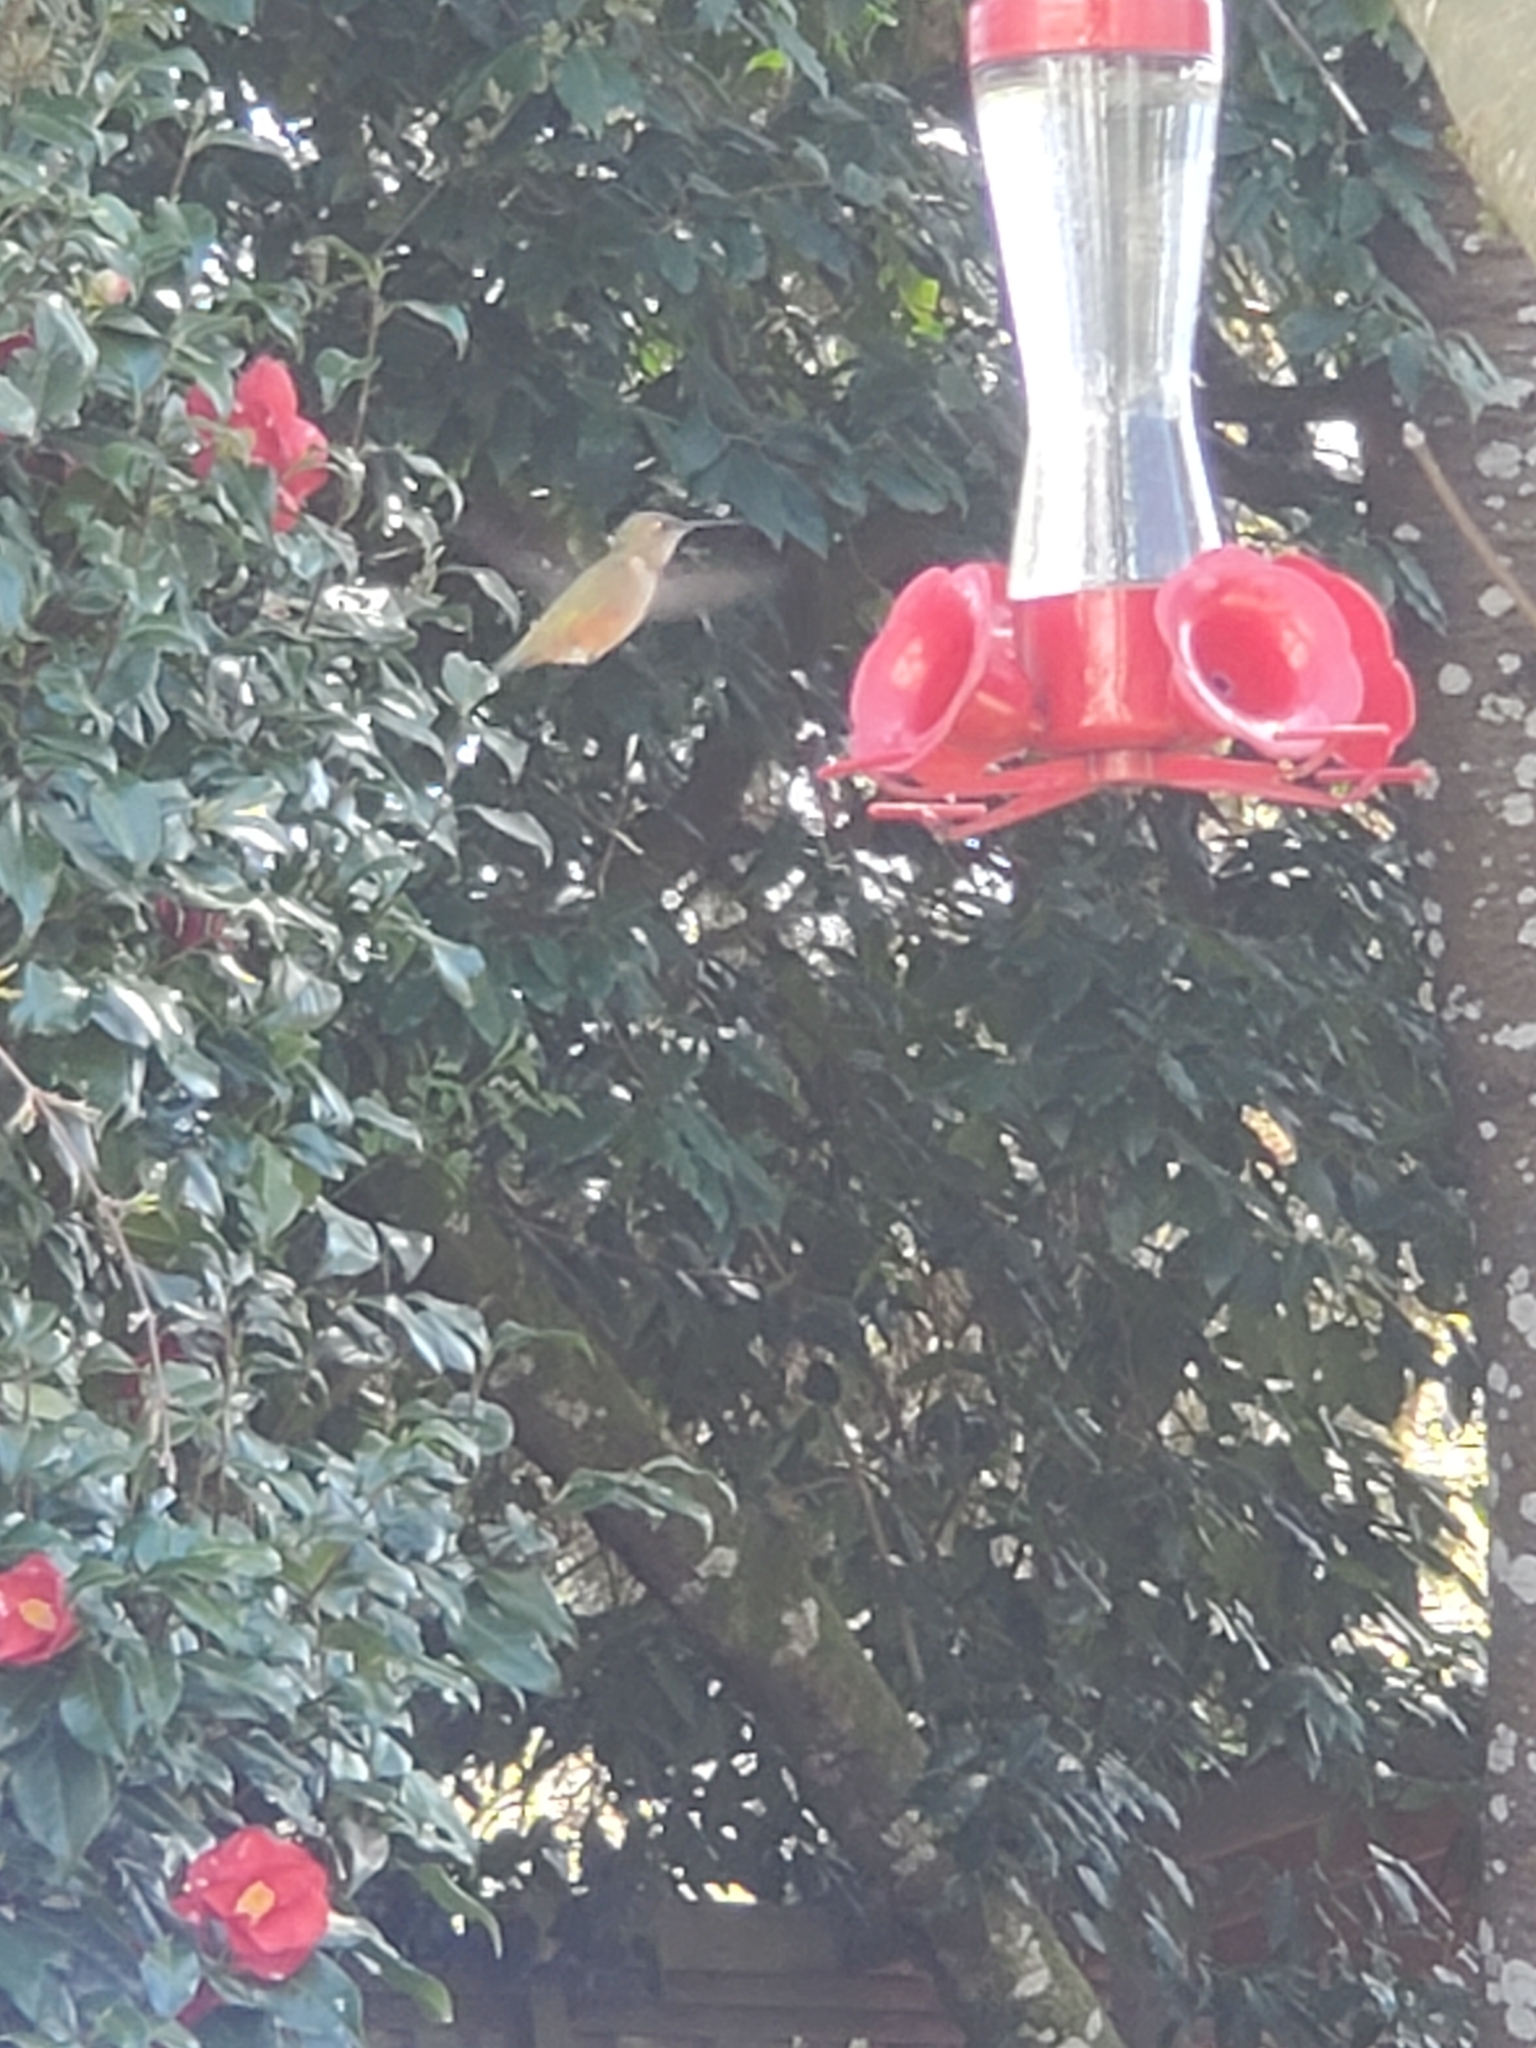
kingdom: Animalia
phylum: Chordata
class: Aves
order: Apodiformes
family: Trochilidae
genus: Selasphorus
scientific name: Selasphorus rufus
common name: Rufous hummingbird
